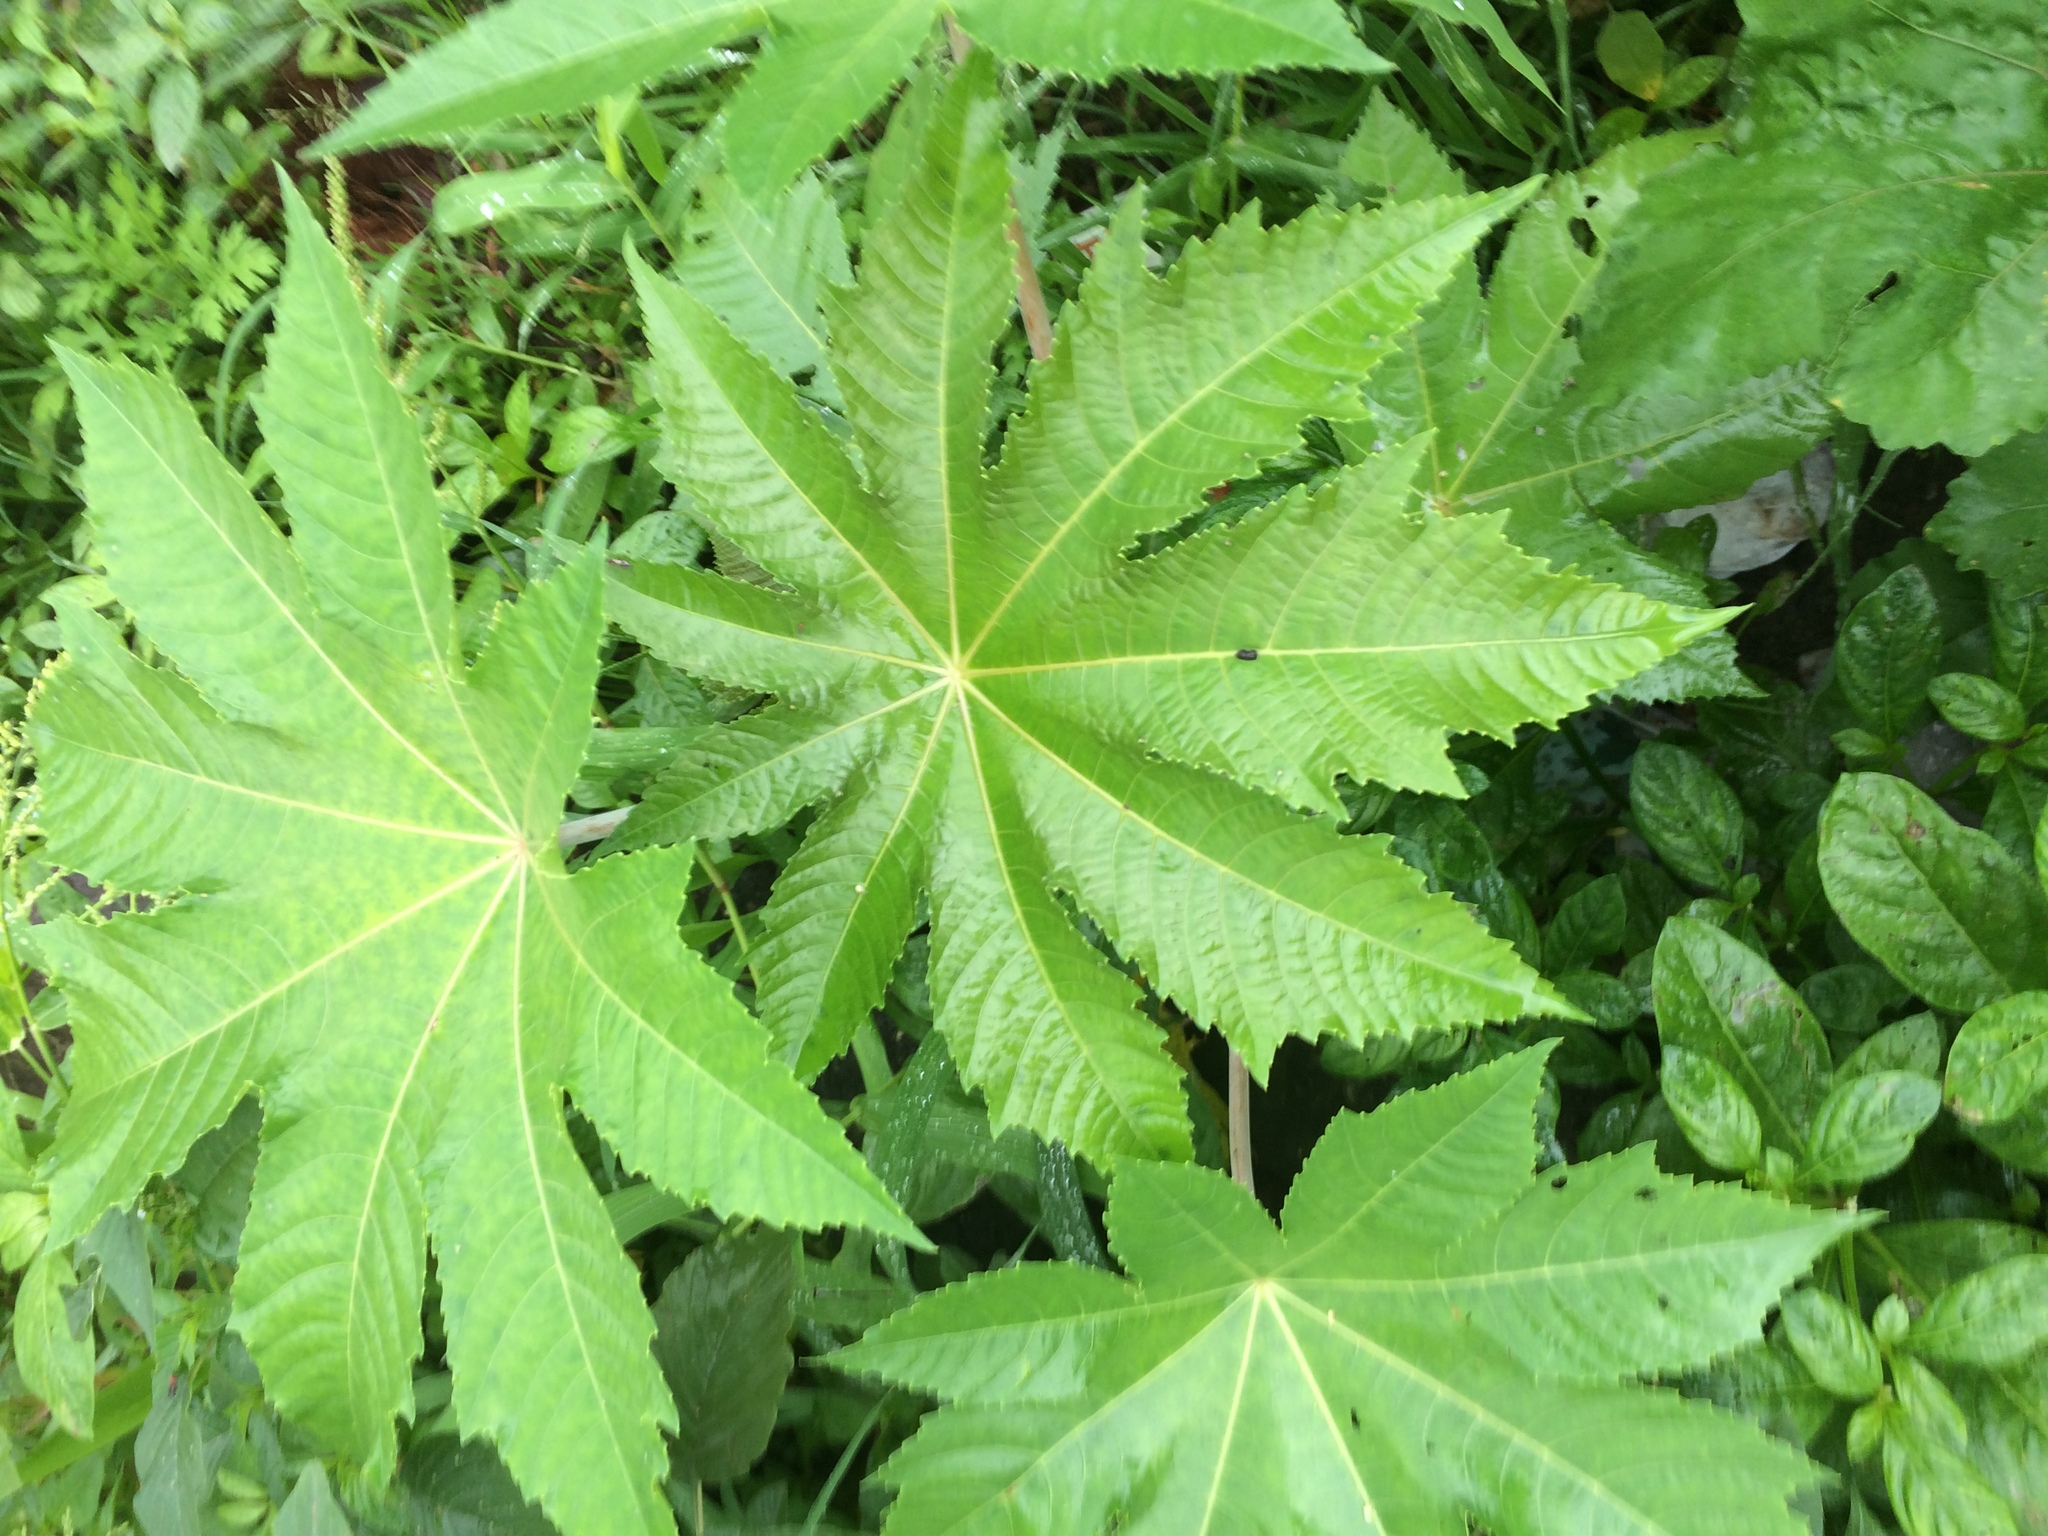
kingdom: Plantae
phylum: Tracheophyta
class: Magnoliopsida
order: Malpighiales
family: Euphorbiaceae
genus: Ricinus
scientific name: Ricinus communis
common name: Castor-oil-plant
